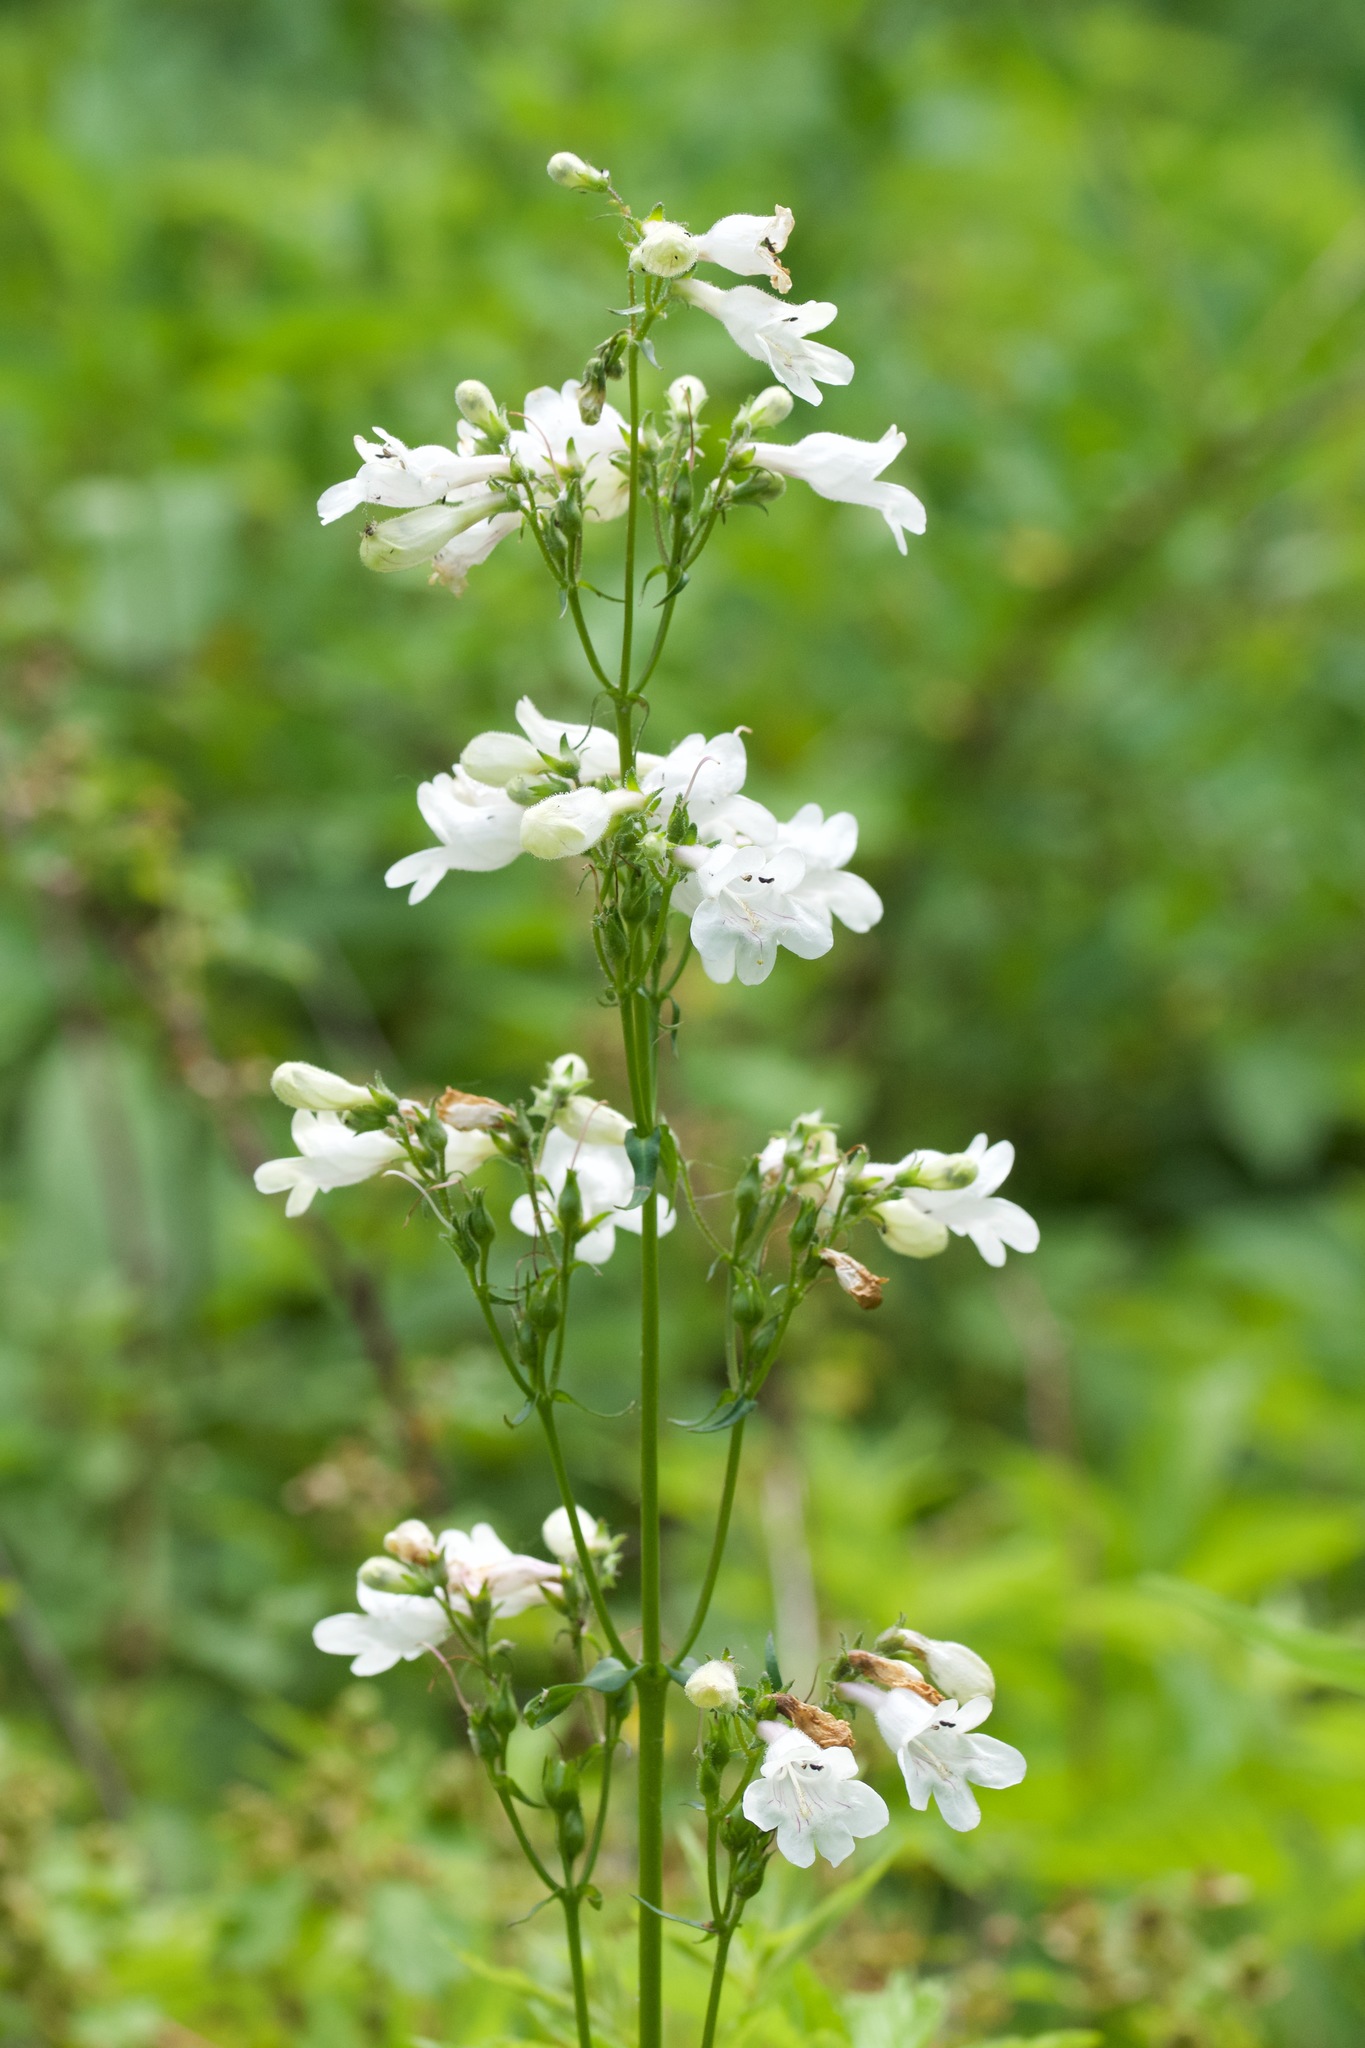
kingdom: Plantae
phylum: Tracheophyta
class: Magnoliopsida
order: Lamiales
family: Plantaginaceae
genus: Penstemon
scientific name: Penstemon digitalis
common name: Foxglove beardtongue
